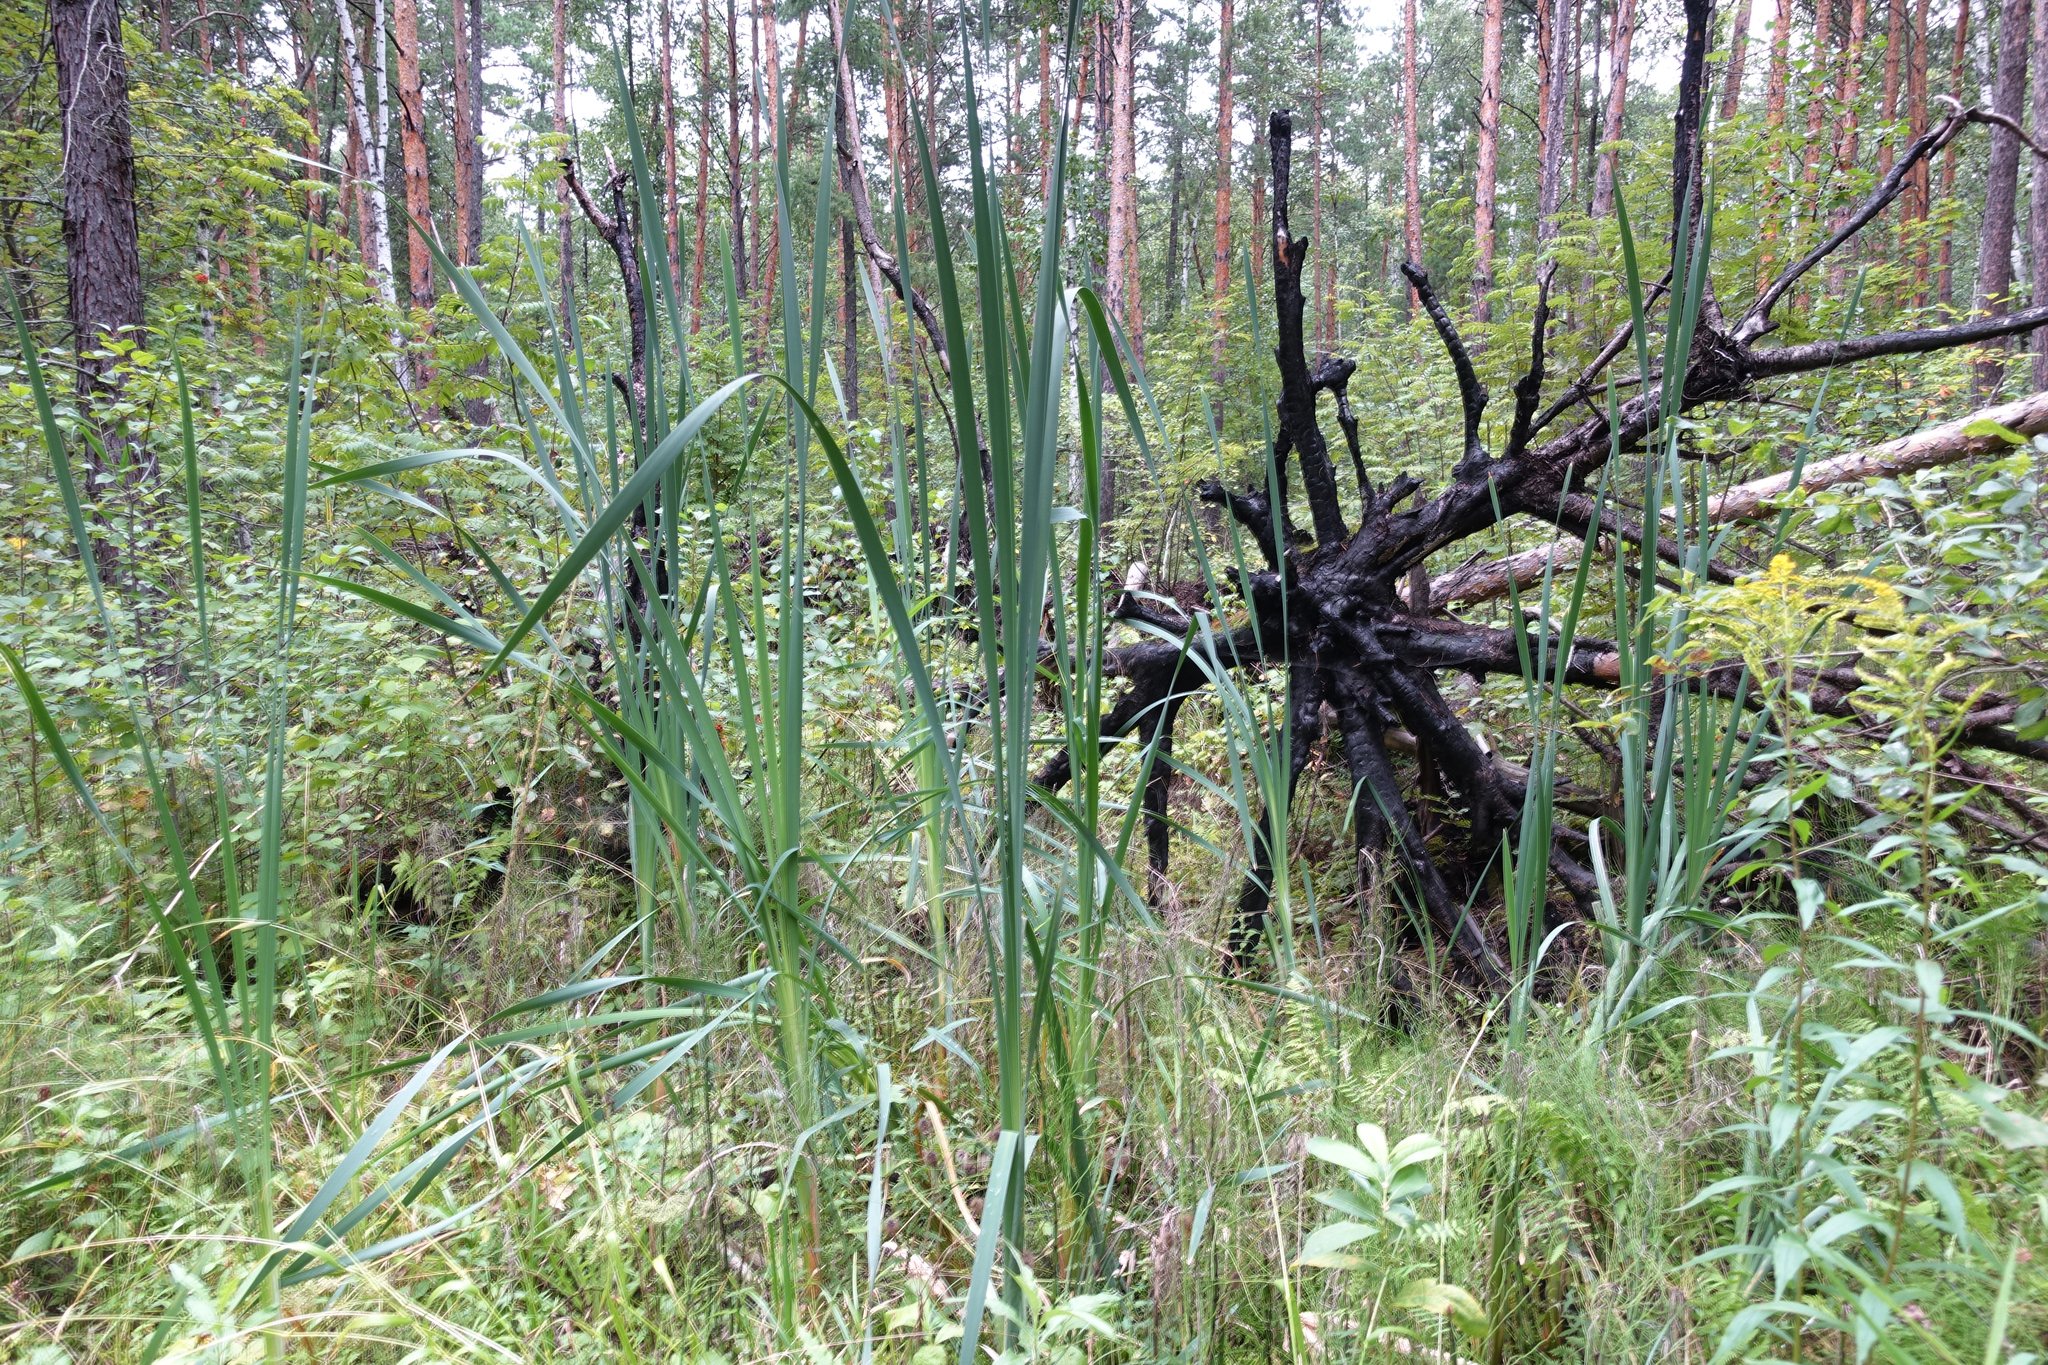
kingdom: Plantae
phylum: Tracheophyta
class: Liliopsida
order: Poales
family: Typhaceae
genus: Typha
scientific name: Typha latifolia
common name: Broadleaf cattail
